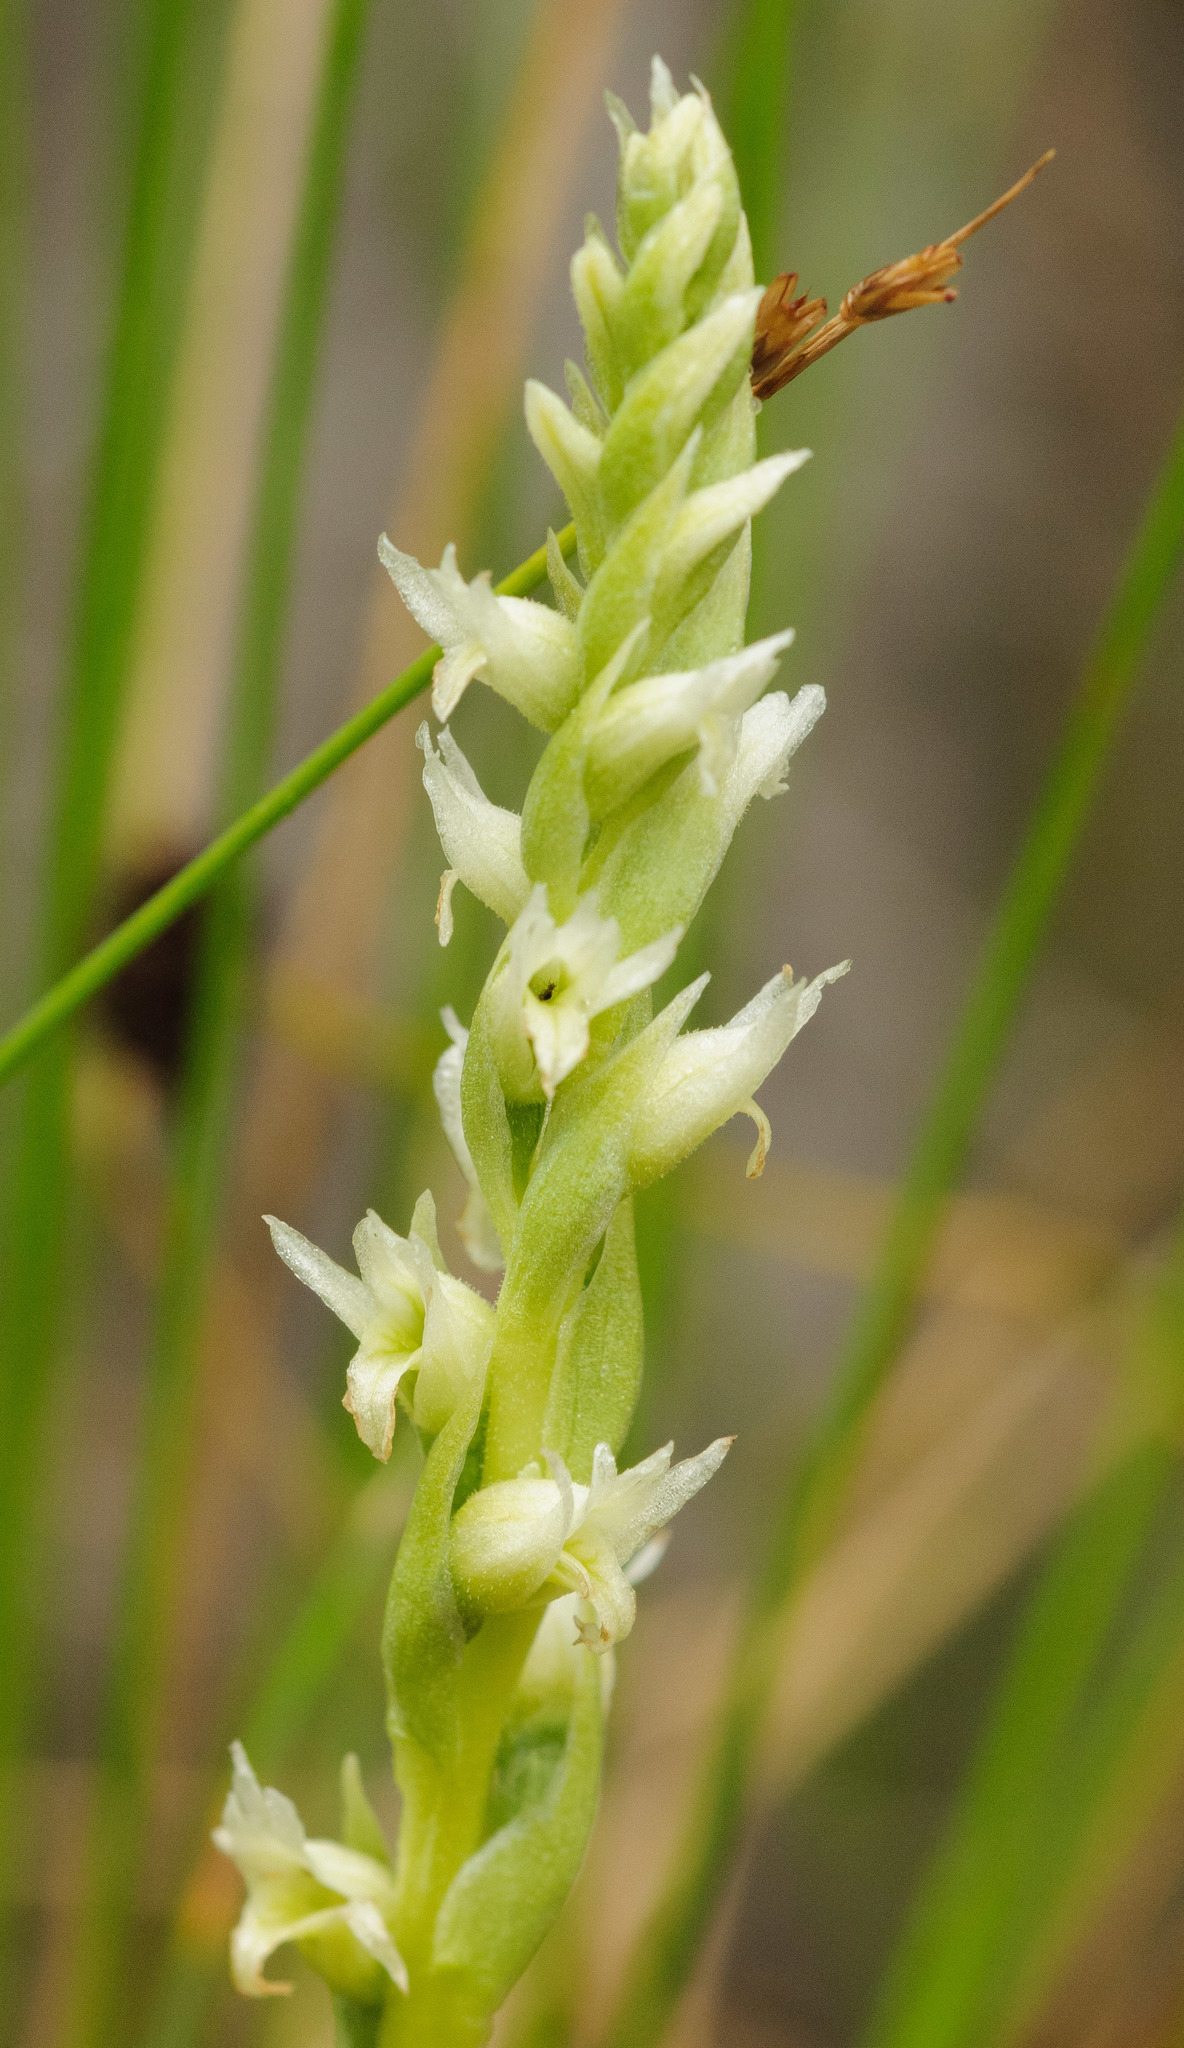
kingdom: Plantae
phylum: Tracheophyta
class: Liliopsida
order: Asparagales
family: Orchidaceae
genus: Spiranthes
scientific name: Spiranthes romanzoffiana
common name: Irish lady's-tresses
